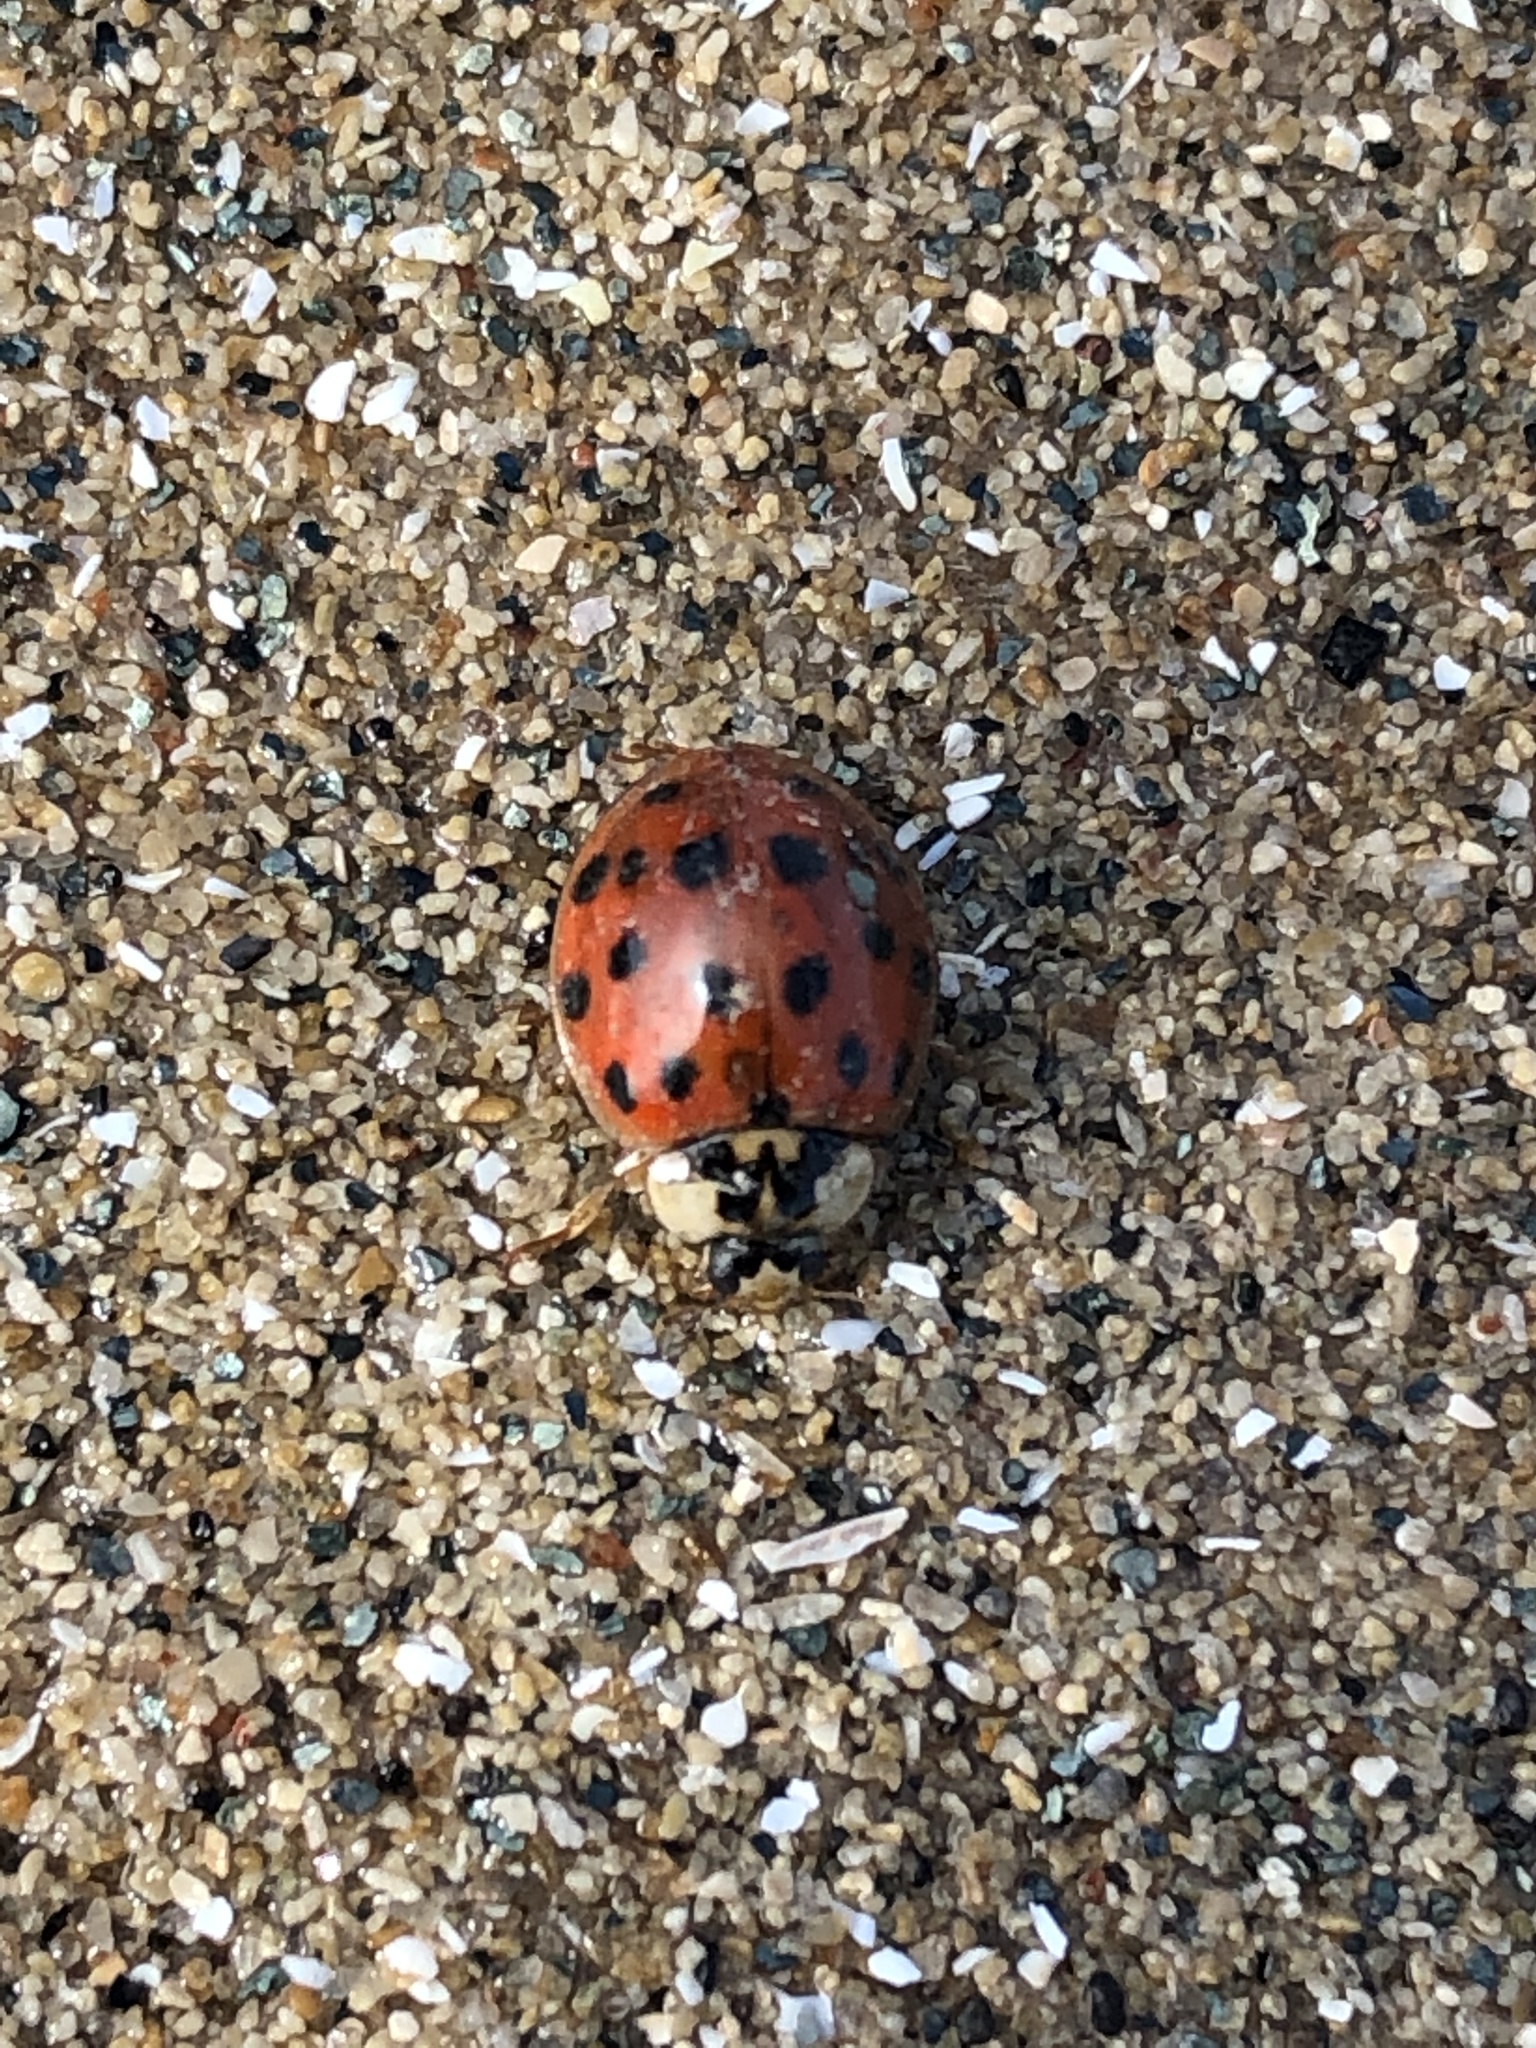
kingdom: Animalia
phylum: Arthropoda
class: Insecta
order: Coleoptera
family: Coccinellidae
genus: Harmonia
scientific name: Harmonia axyridis
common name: Harlequin ladybird
